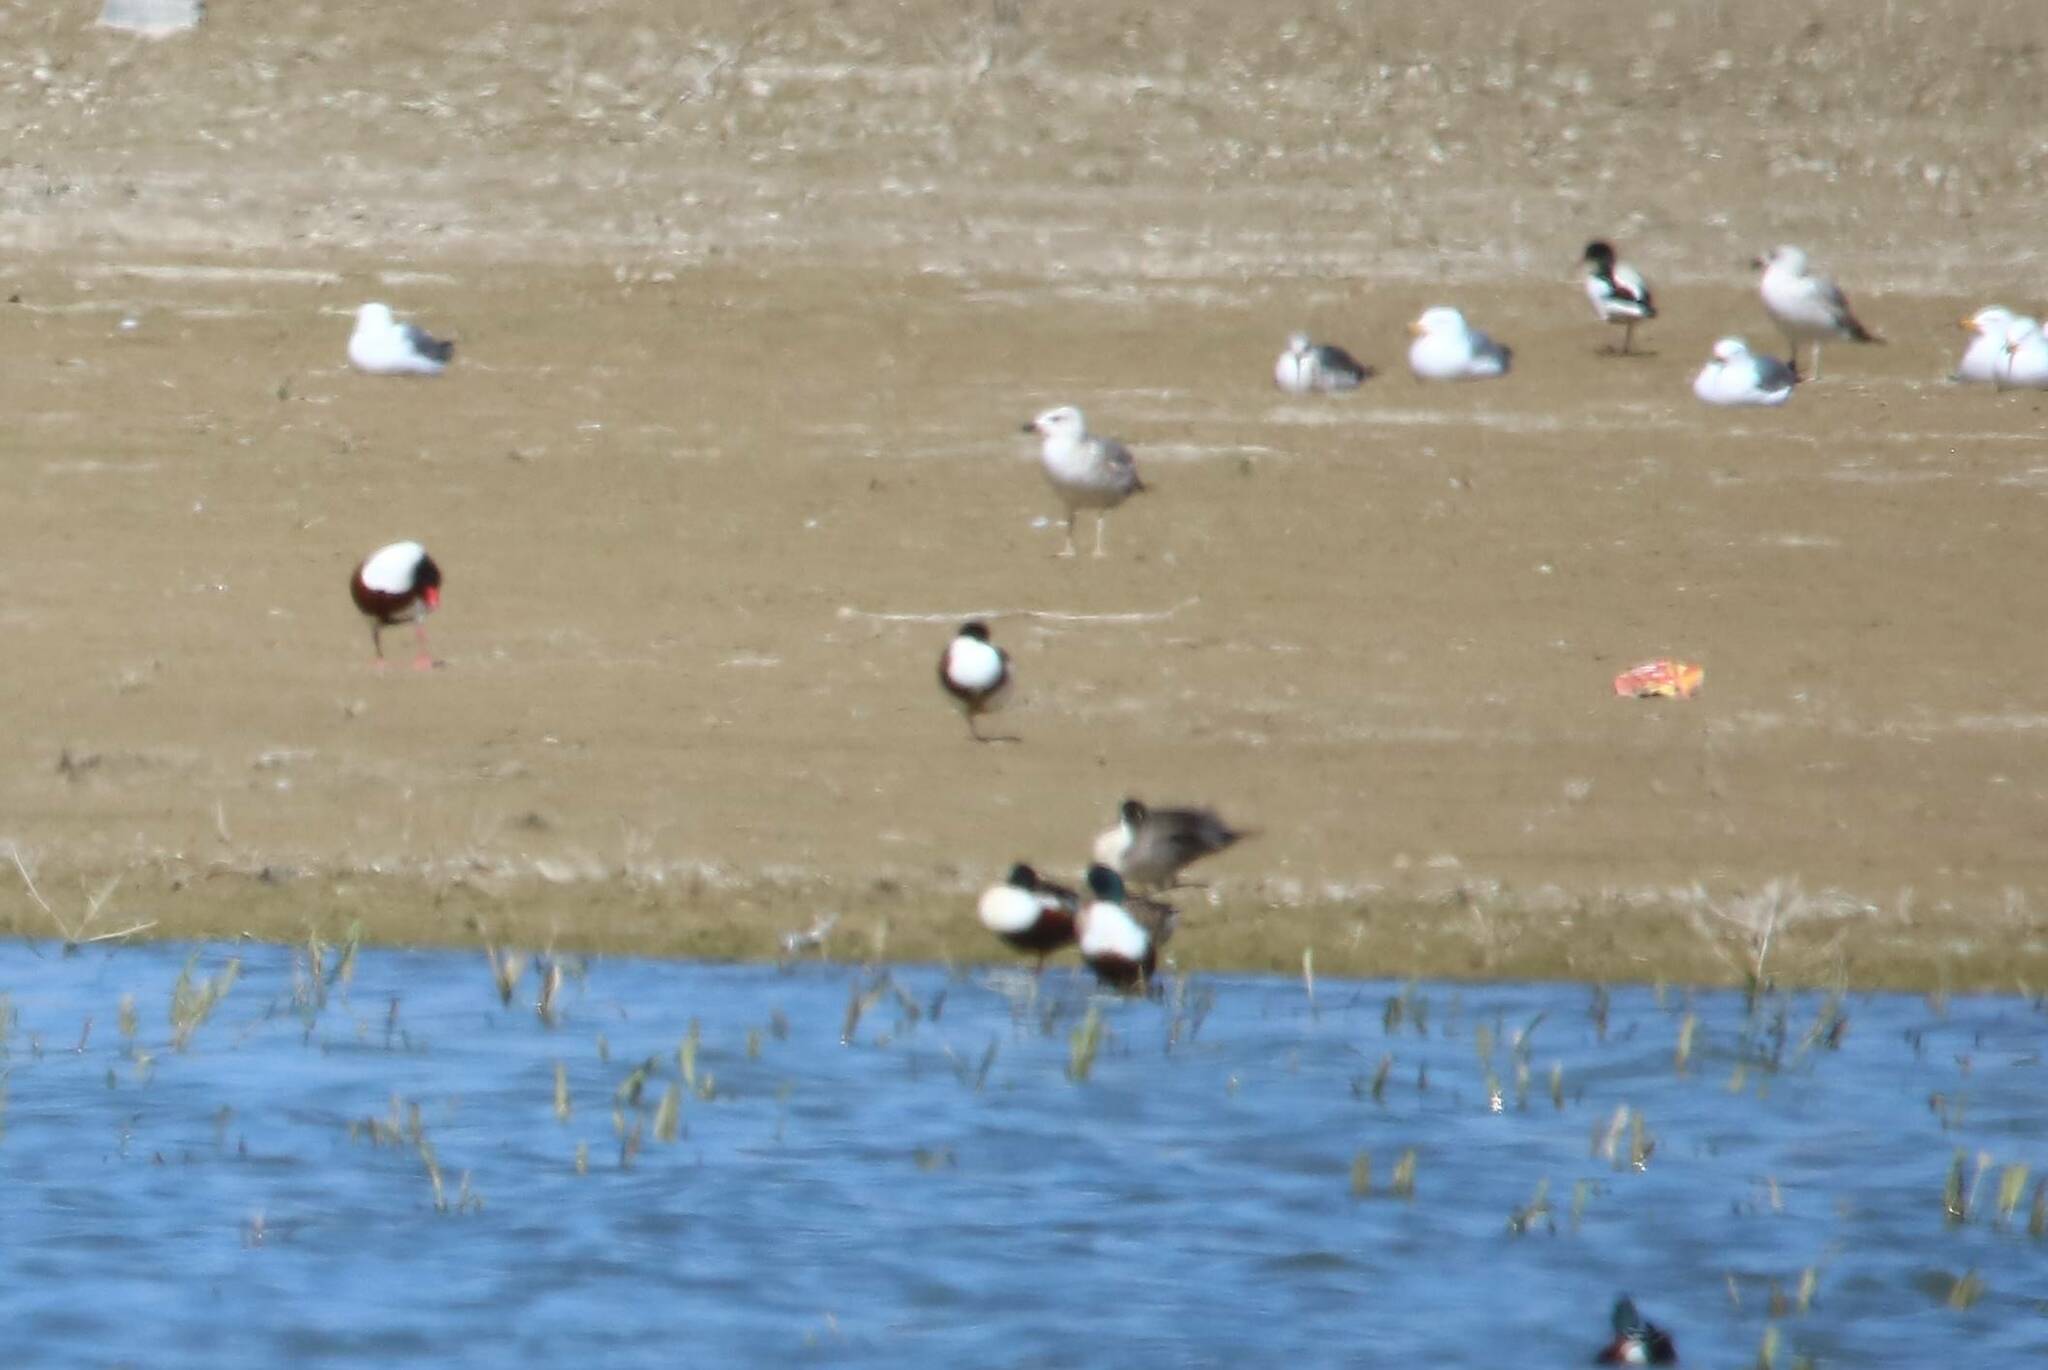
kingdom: Animalia
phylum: Chordata
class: Aves
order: Anseriformes
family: Anatidae
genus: Spatula
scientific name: Spatula clypeata
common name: Northern shoveler
